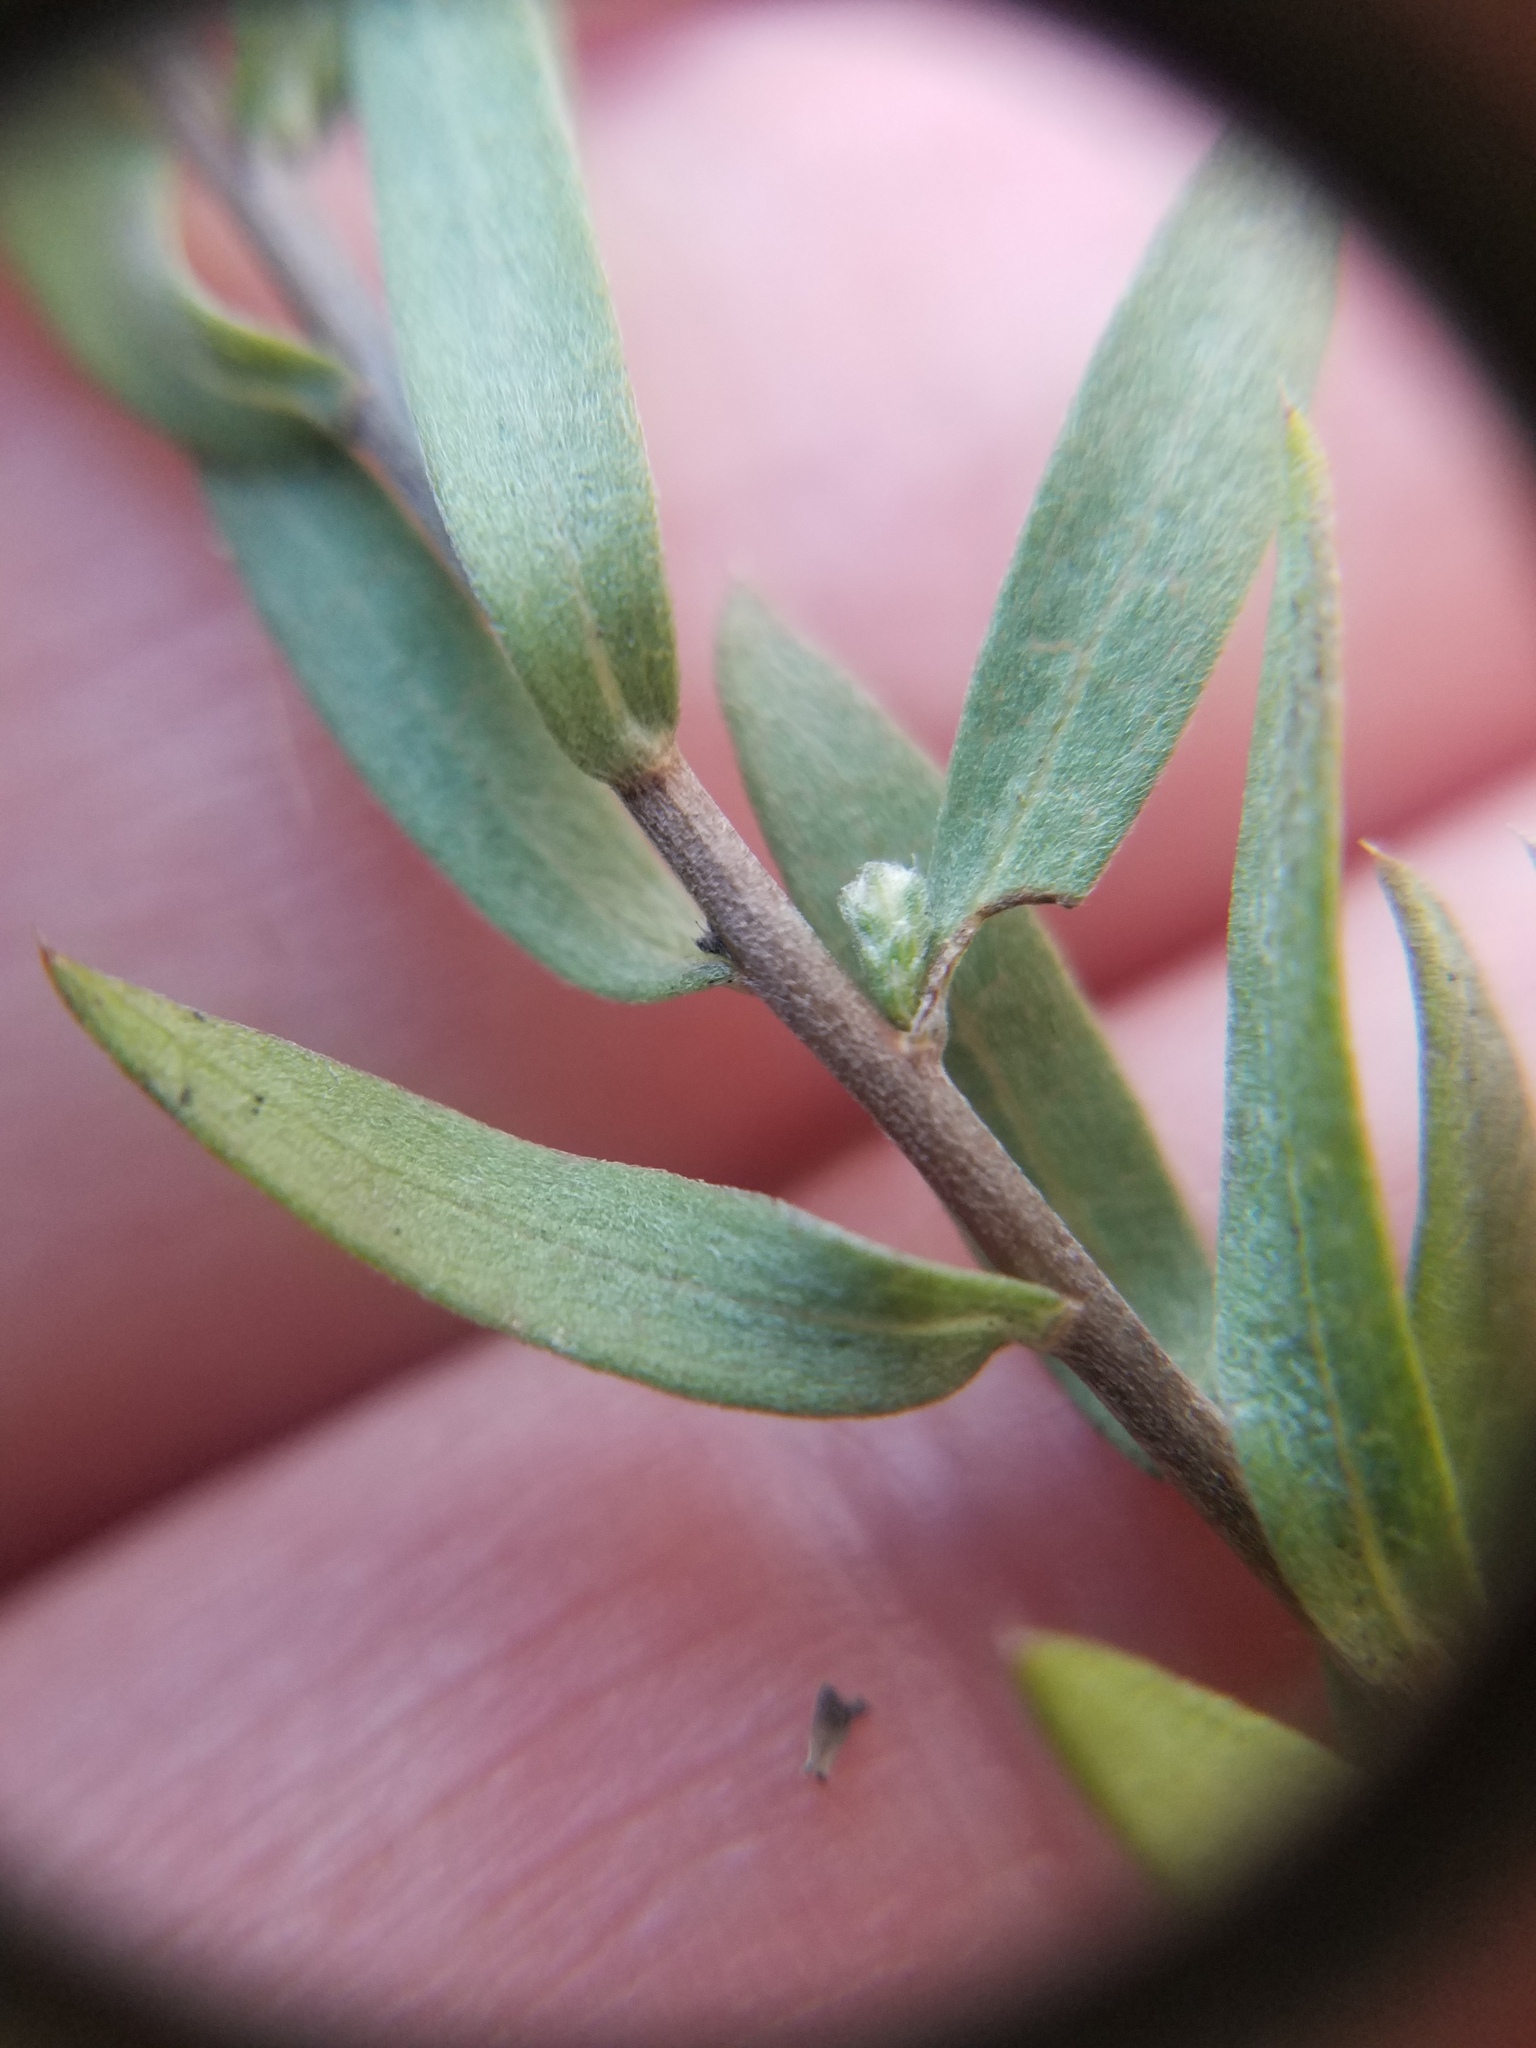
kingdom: Plantae
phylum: Tracheophyta
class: Magnoliopsida
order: Asterales
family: Asteraceae
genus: Symphyotrichum
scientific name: Symphyotrichum concolor
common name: Eastern silver aster
